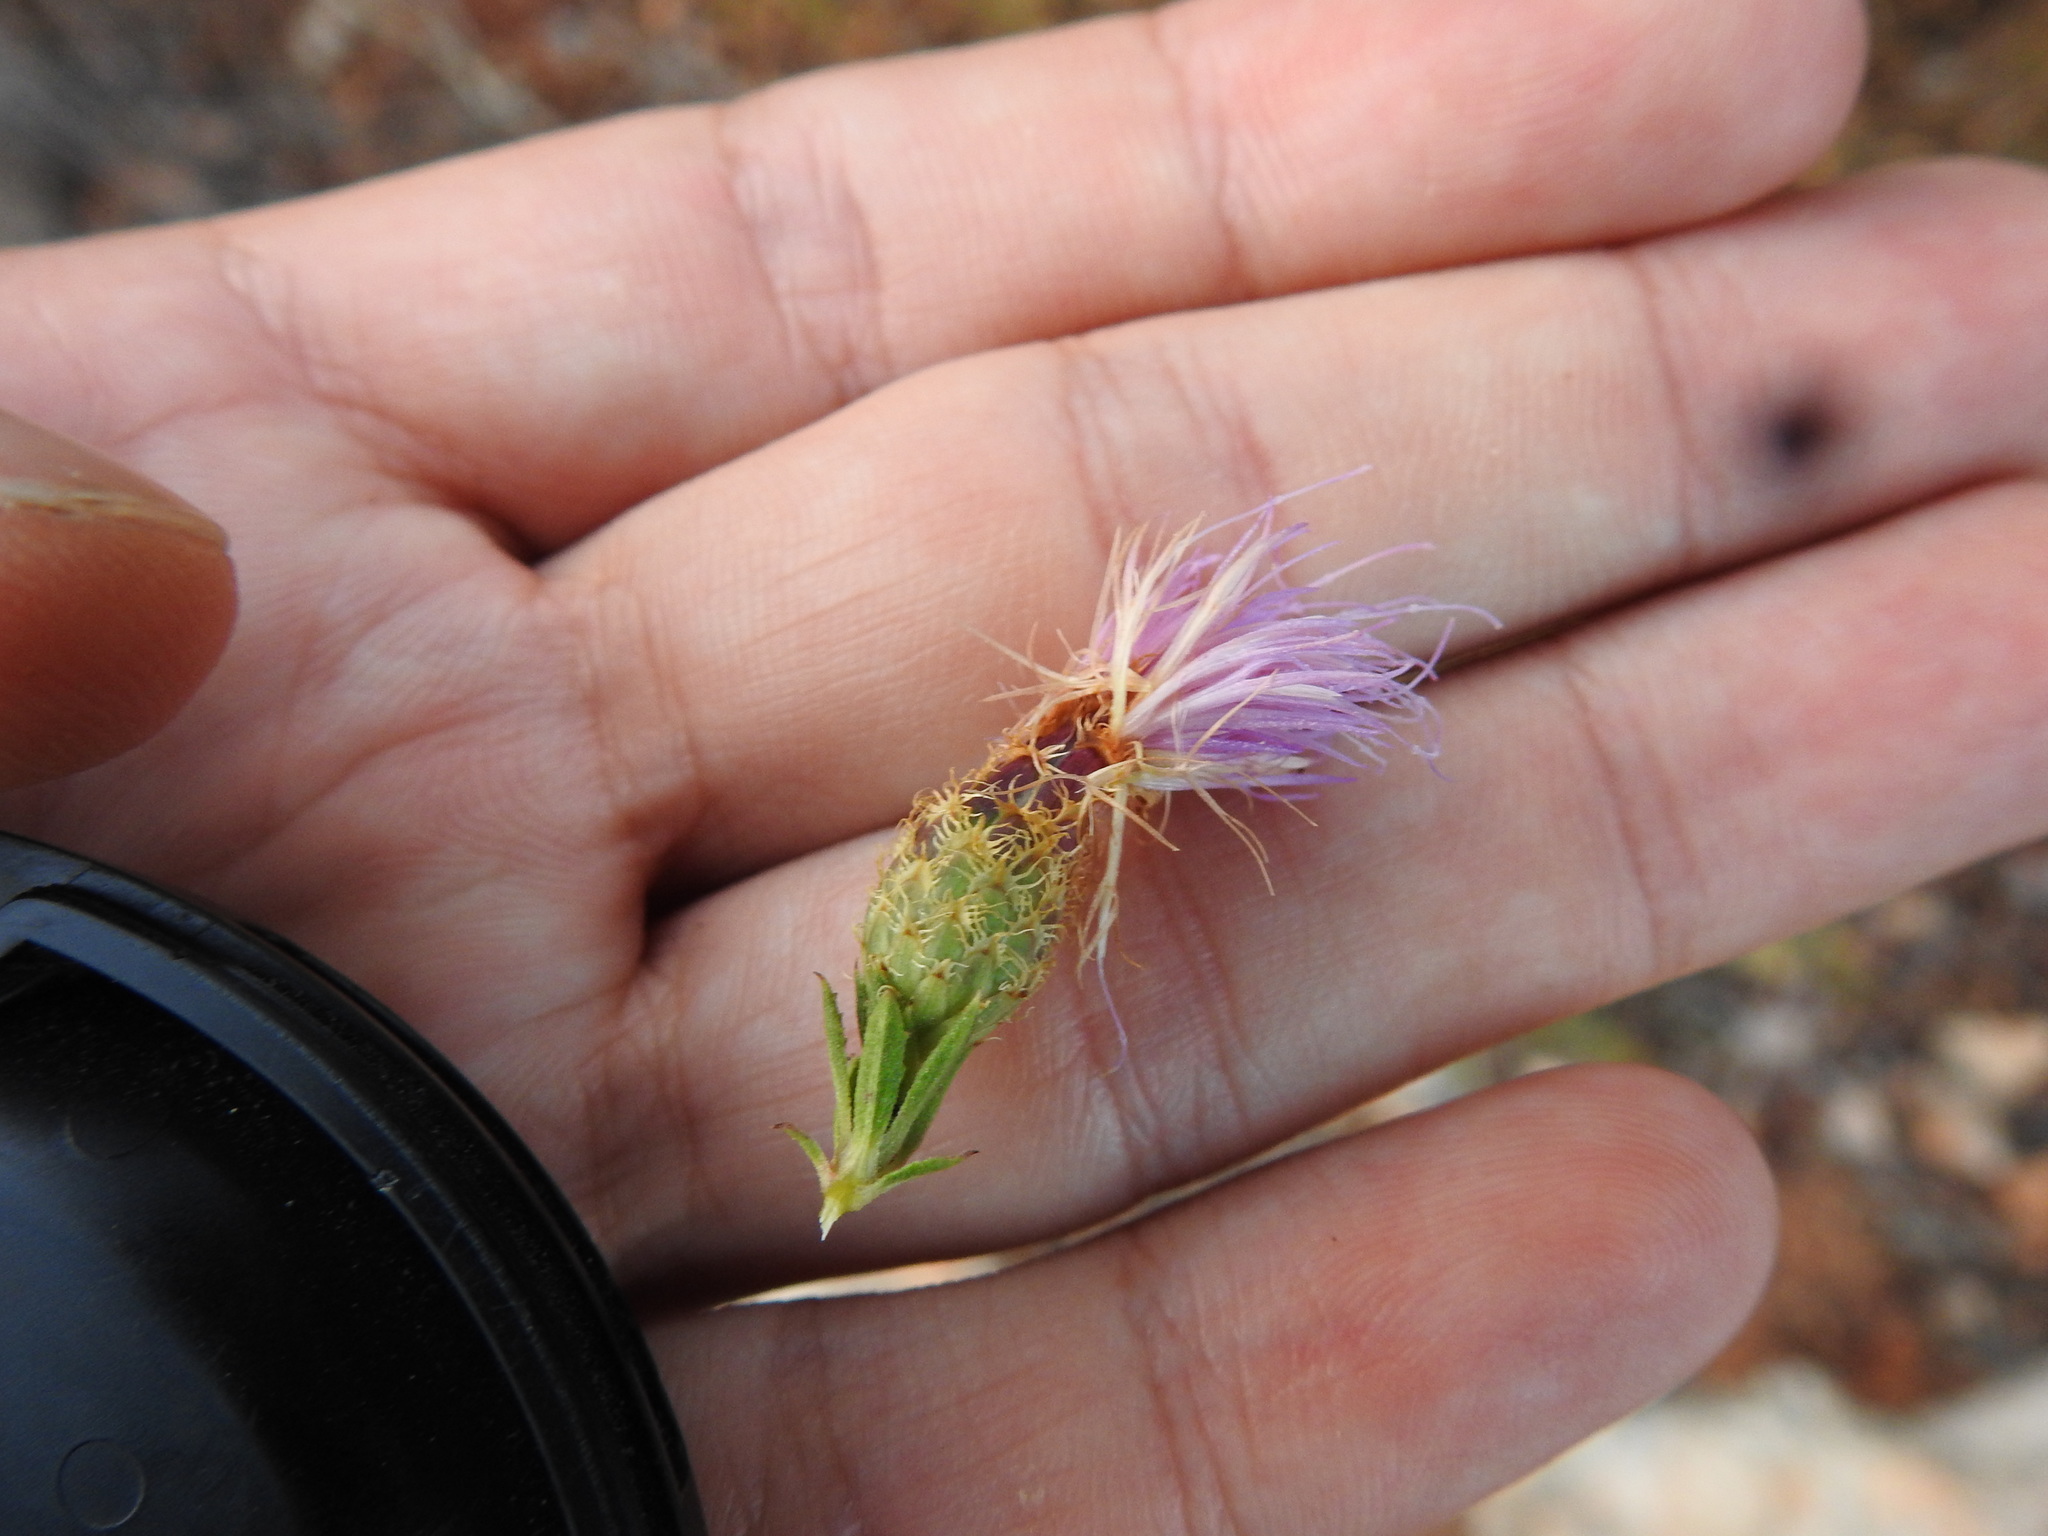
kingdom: Plantae
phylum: Tracheophyta
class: Magnoliopsida
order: Asterales
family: Asteraceae
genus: Cheirolophus
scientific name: Cheirolophus sempervirens
